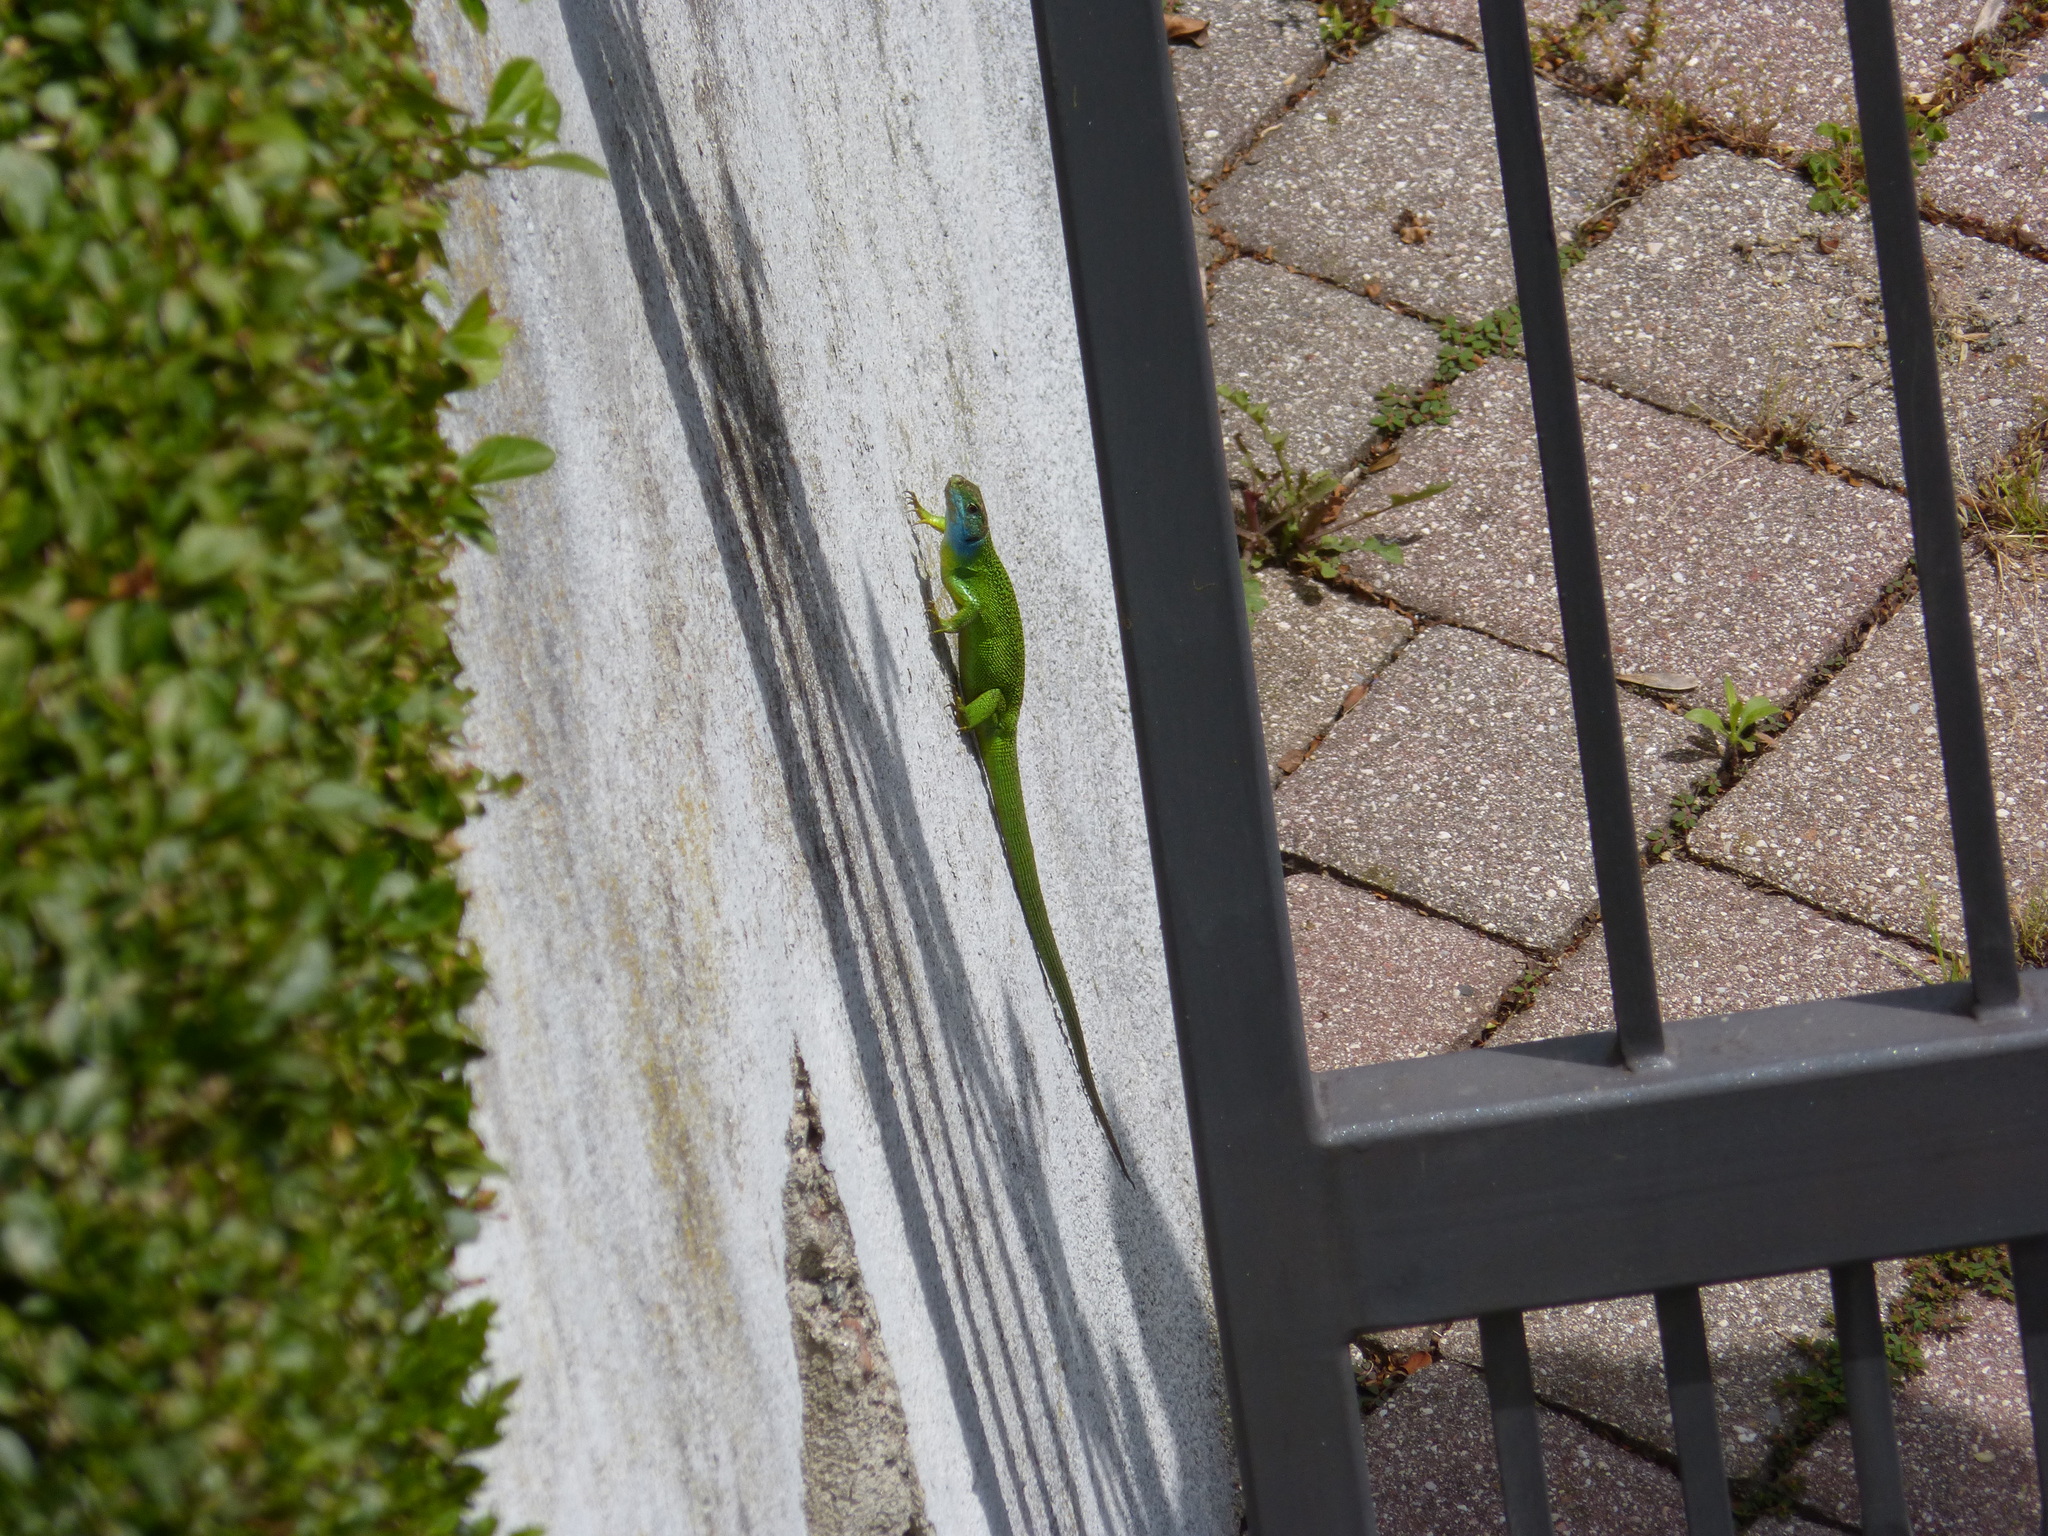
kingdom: Animalia
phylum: Chordata
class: Squamata
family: Lacertidae
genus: Lacerta
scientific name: Lacerta bilineata
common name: Western green lizard
